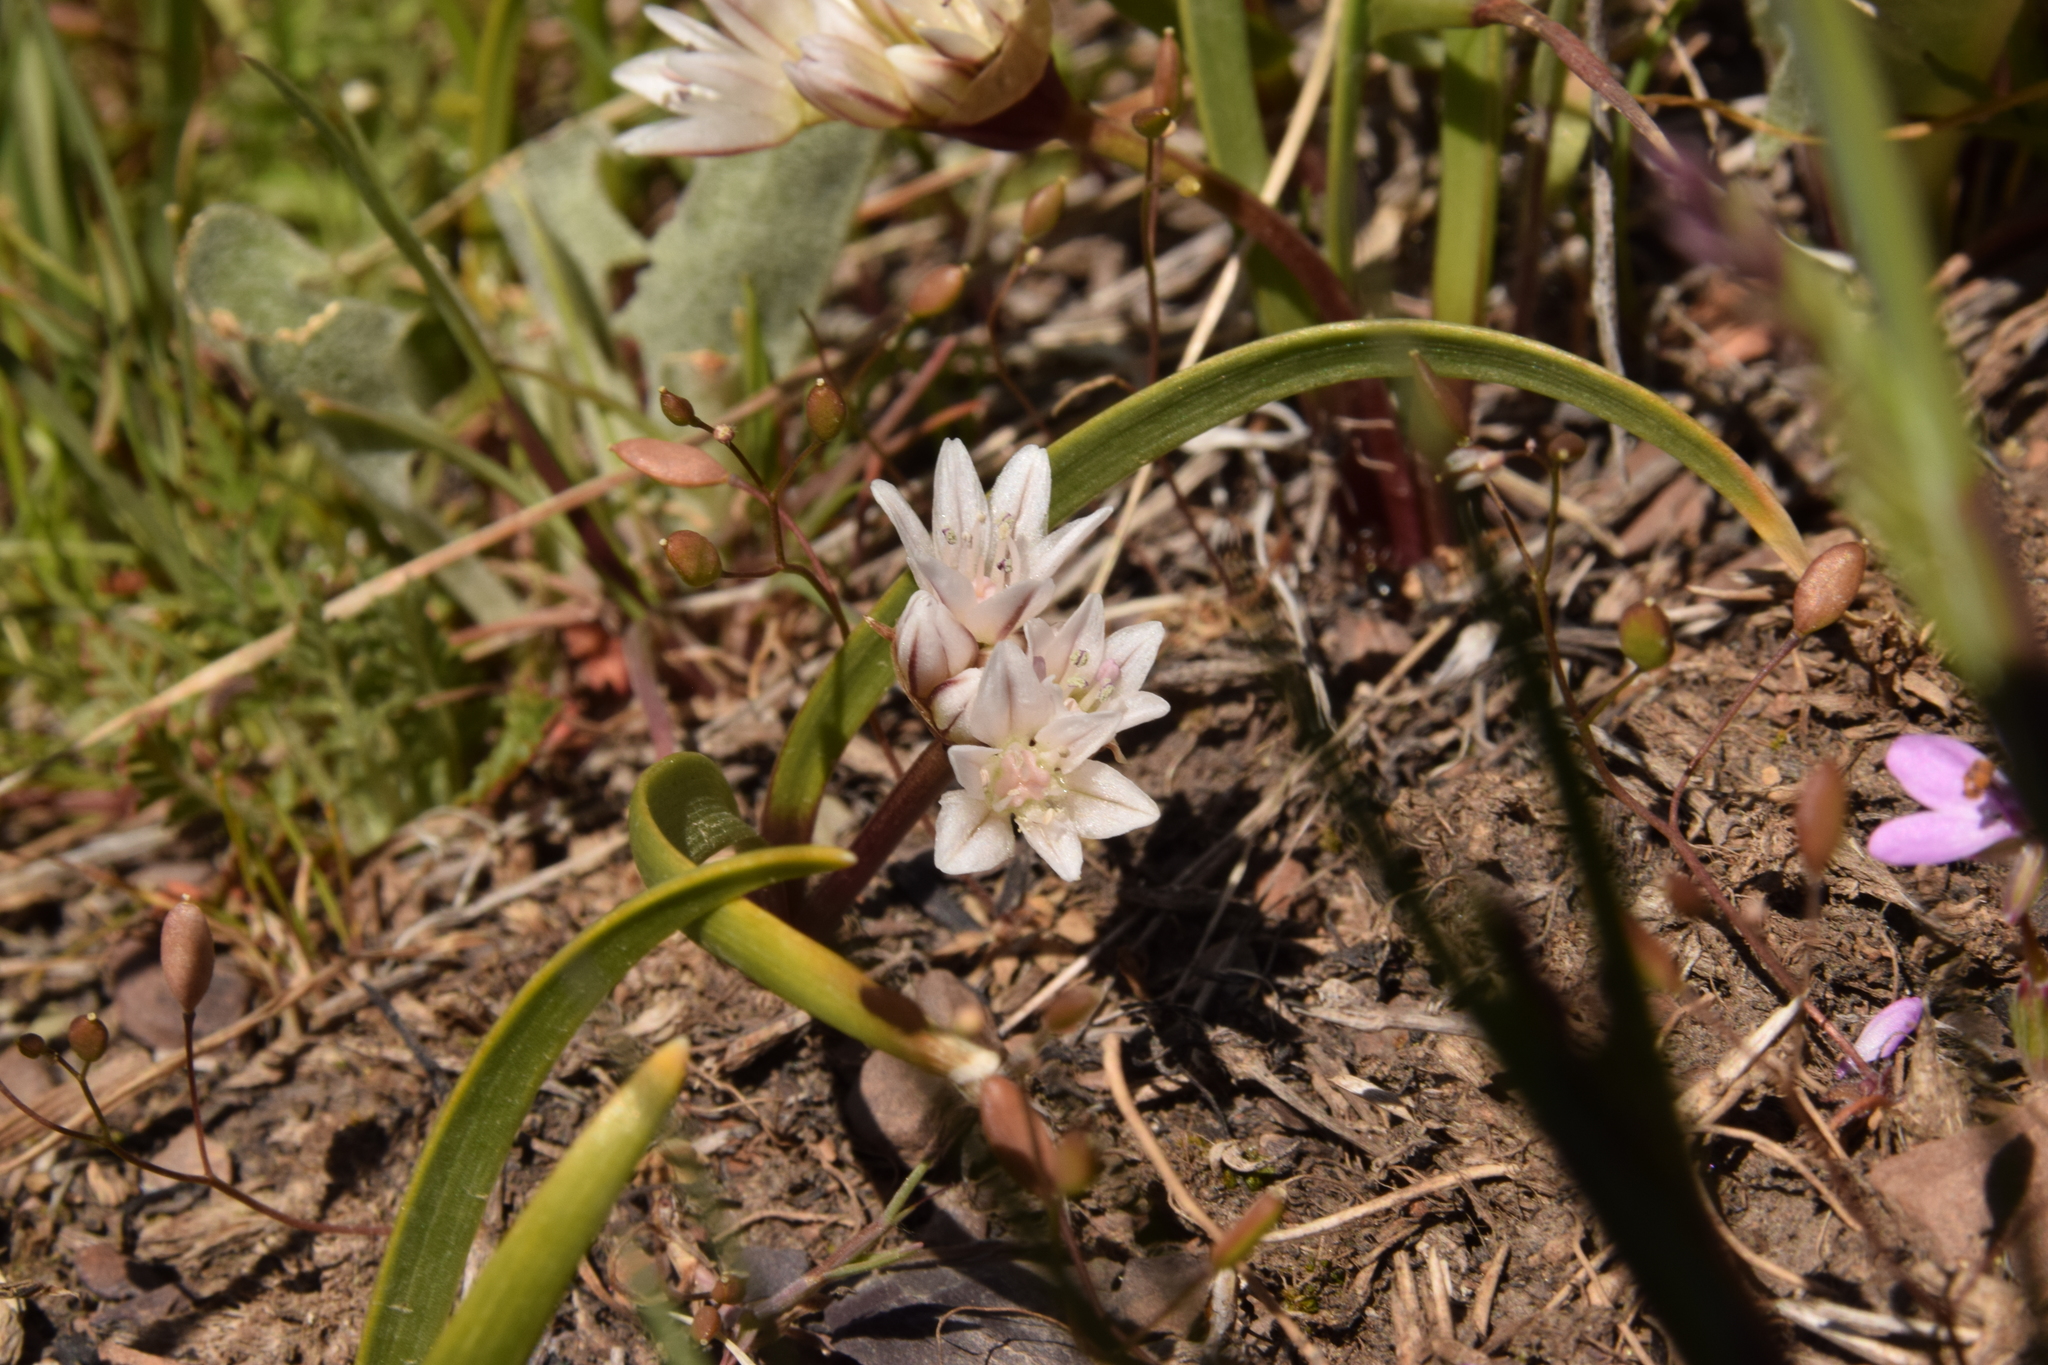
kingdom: Plantae
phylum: Tracheophyta
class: Liliopsida
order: Asparagales
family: Amaryllidaceae
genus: Allium
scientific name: Allium brandegeei
